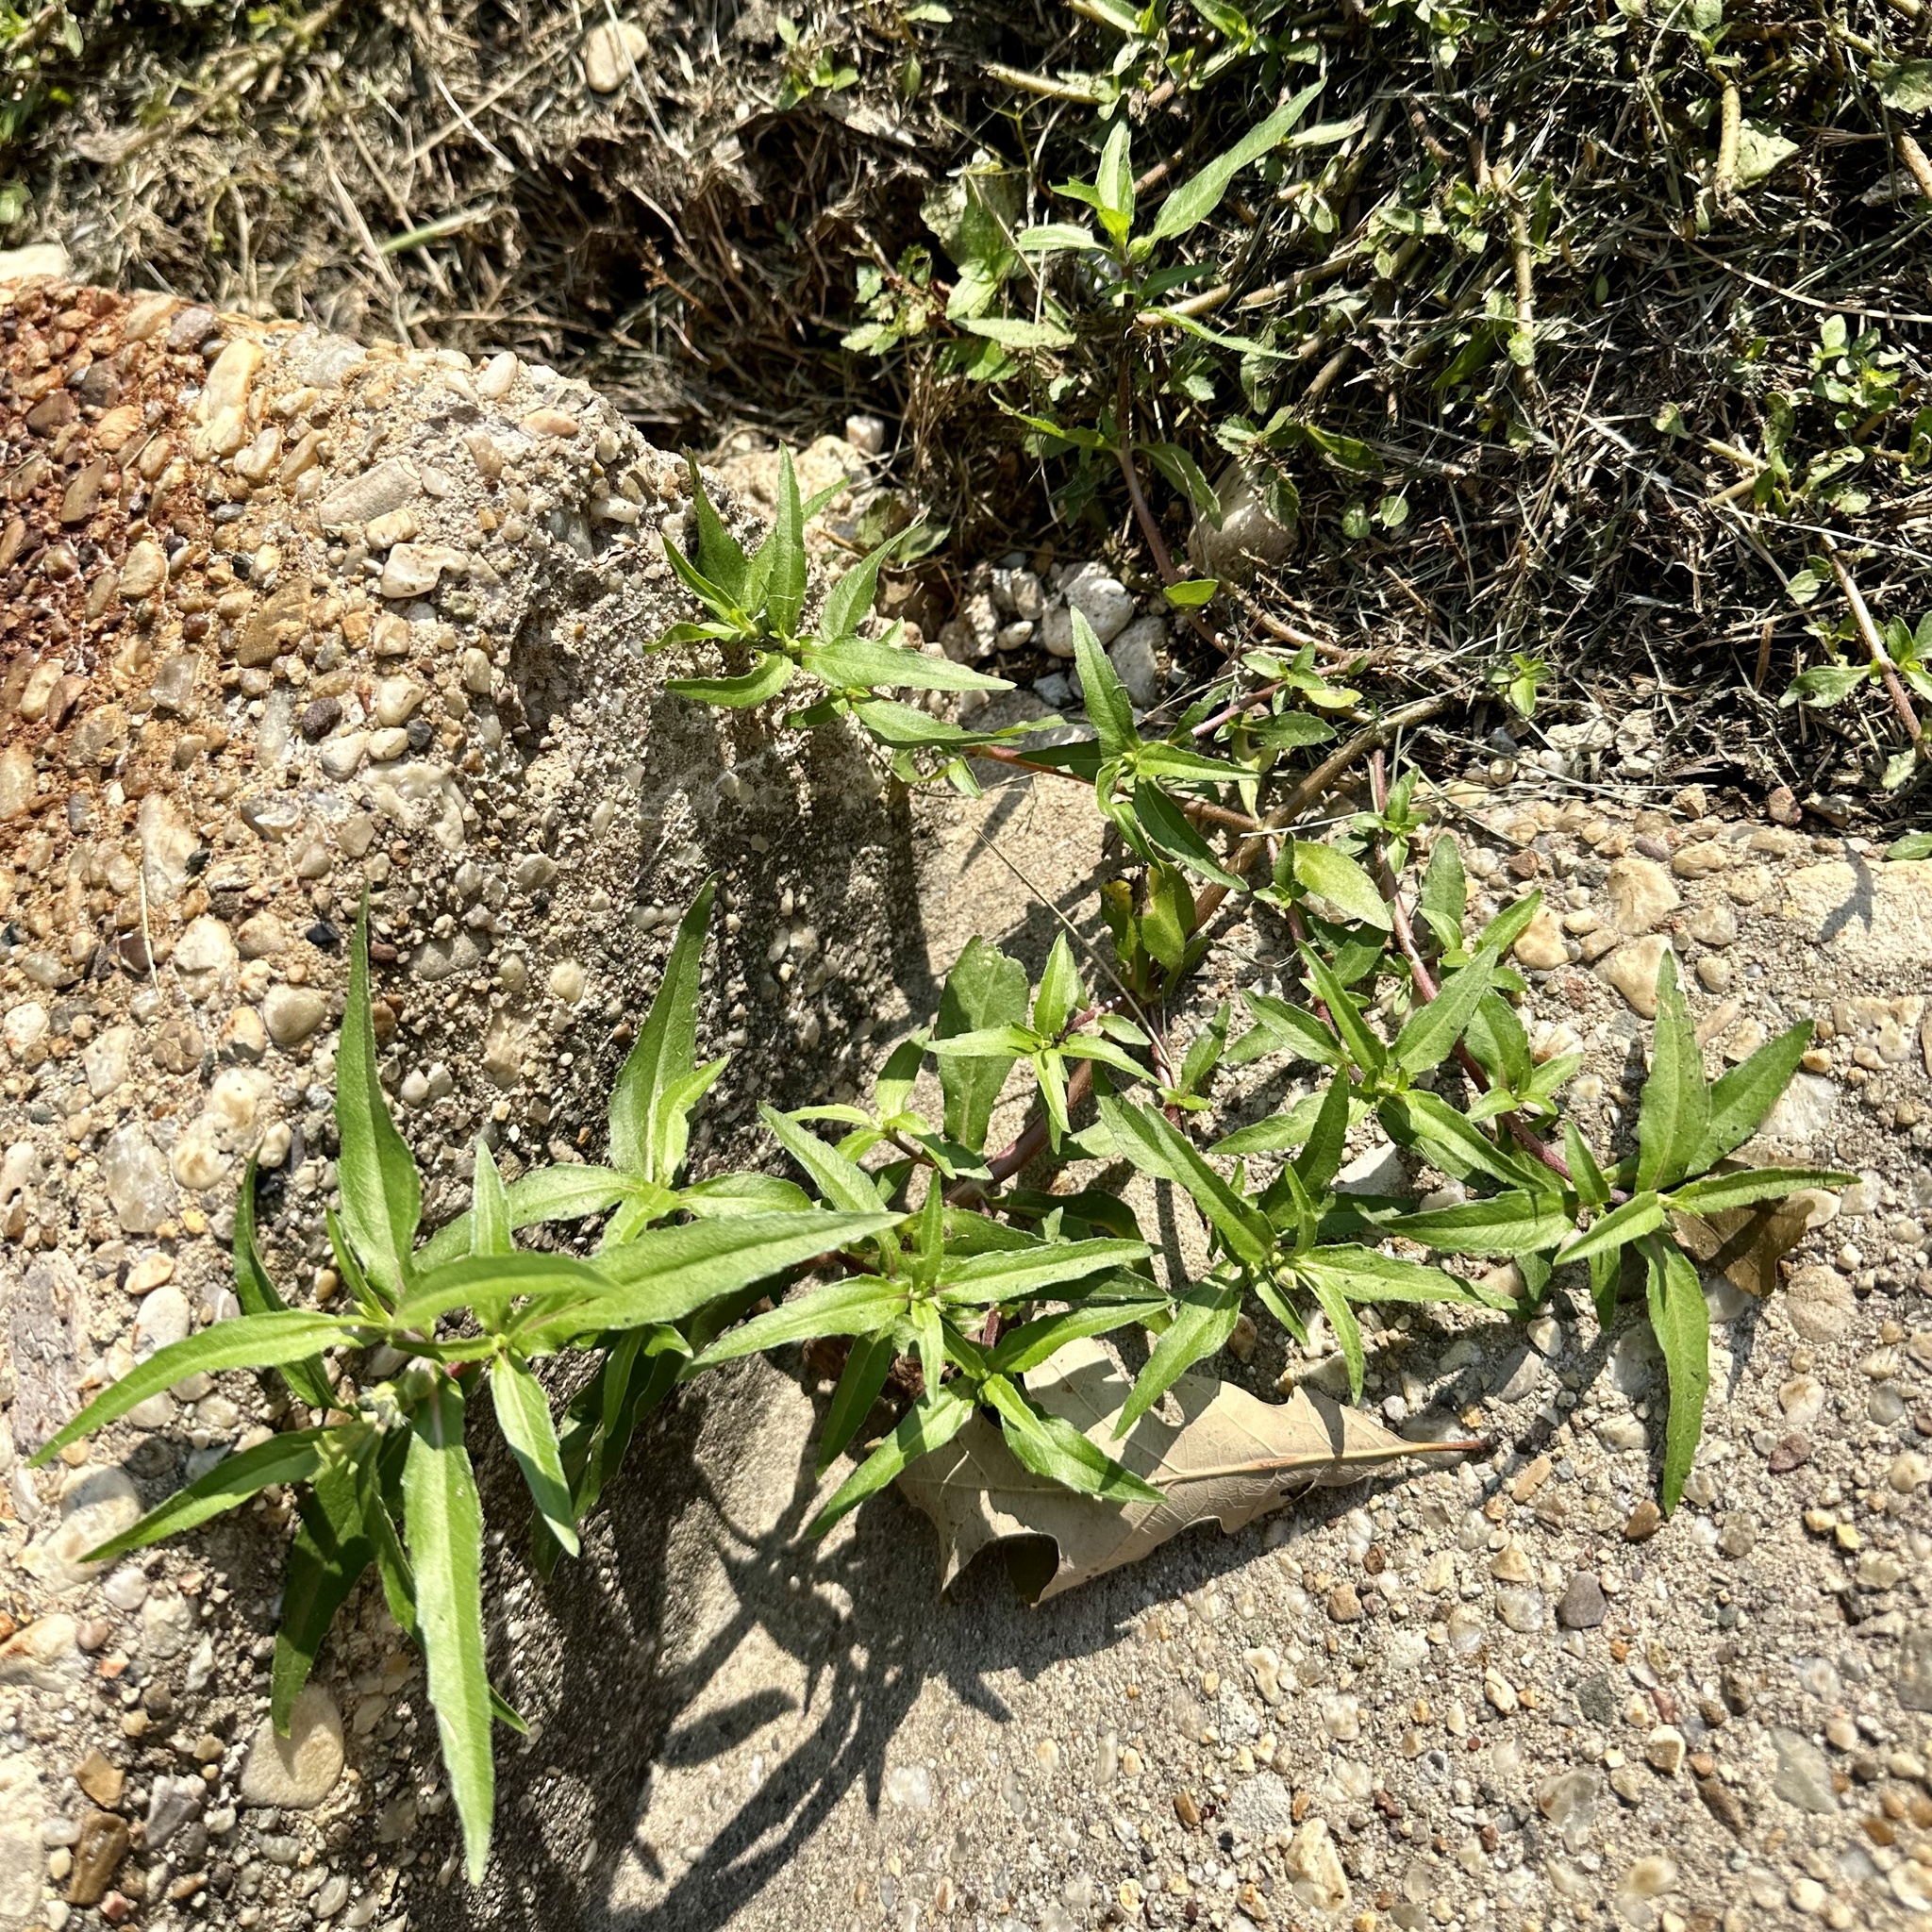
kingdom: Plantae
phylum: Tracheophyta
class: Magnoliopsida
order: Asterales
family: Asteraceae
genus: Eclipta
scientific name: Eclipta prostrata
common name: False daisy
